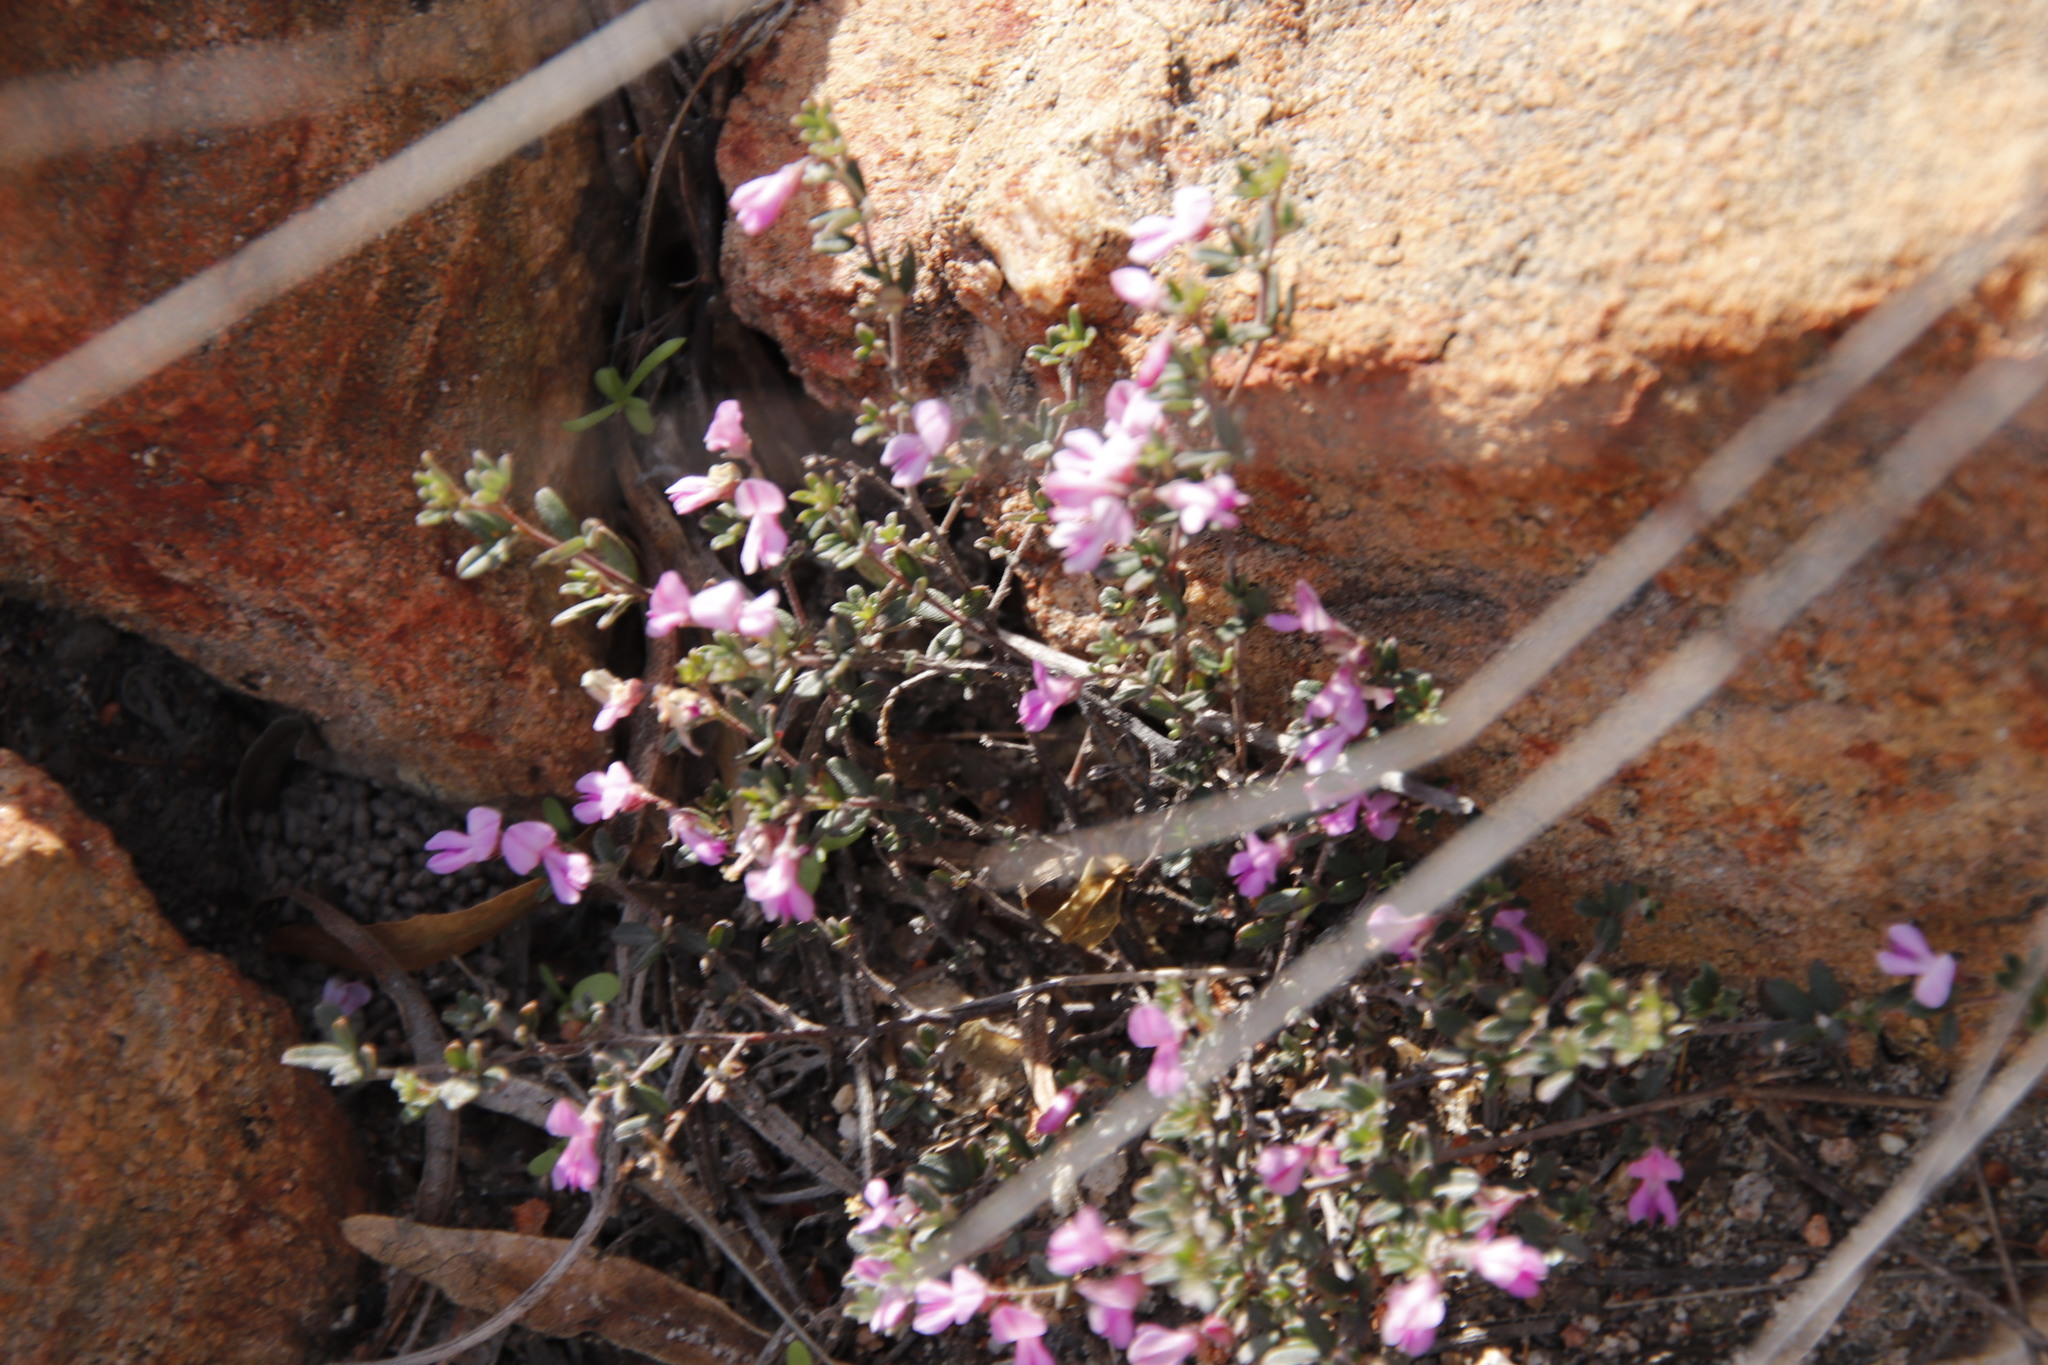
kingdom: Plantae
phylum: Tracheophyta
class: Magnoliopsida
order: Fabales
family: Fabaceae
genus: Indigofera
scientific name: Indigofera pilgeriana
